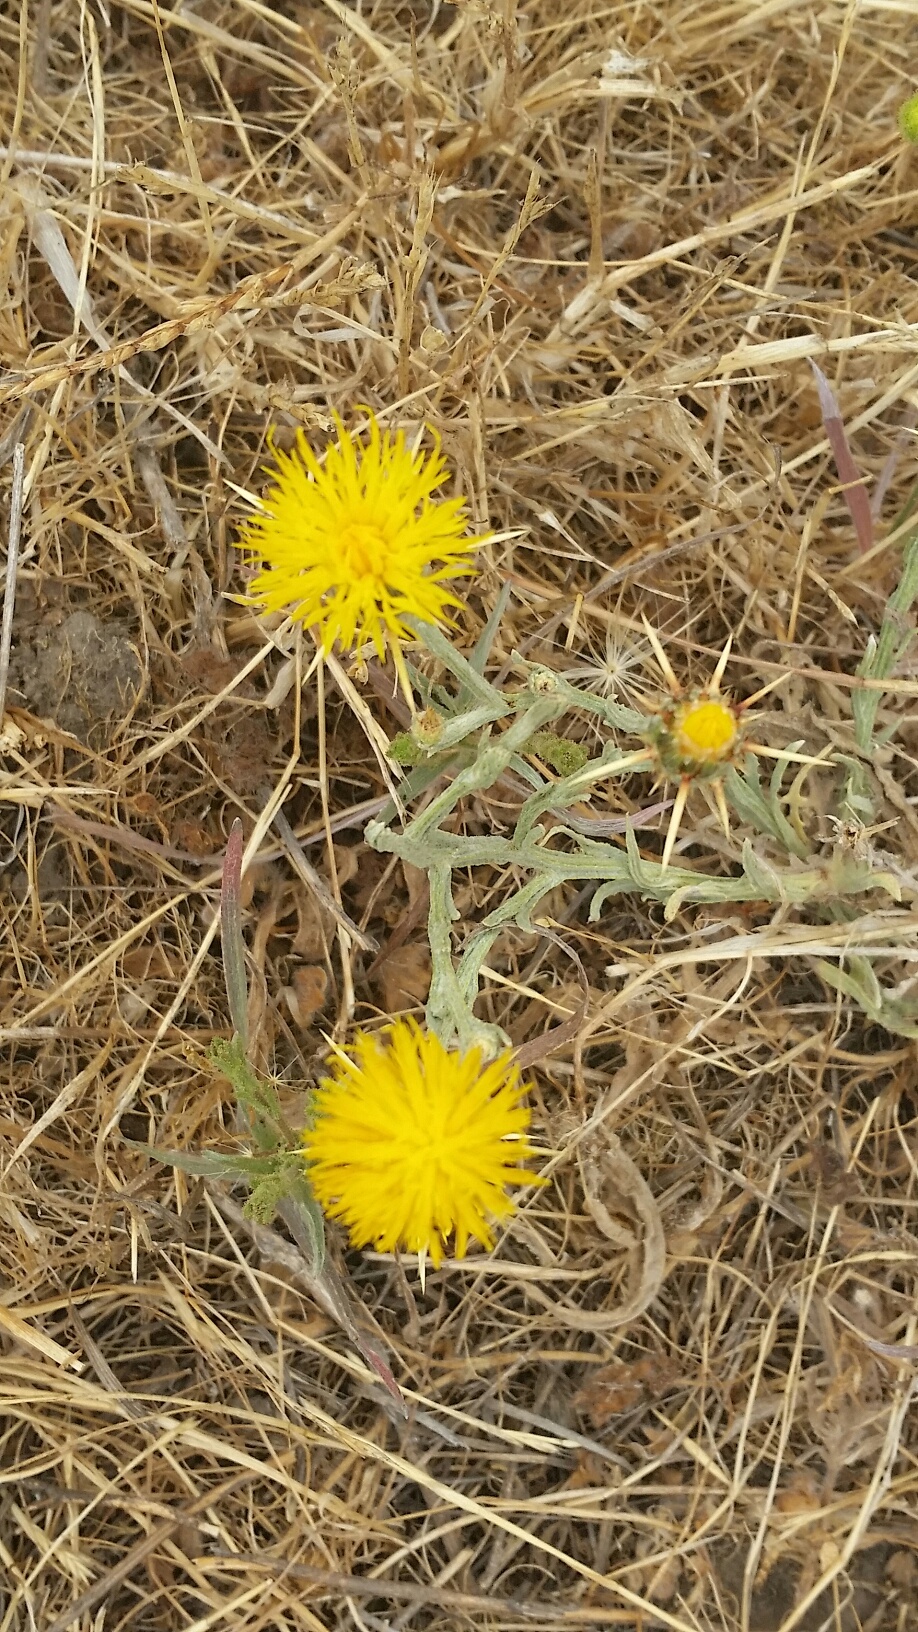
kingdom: Plantae
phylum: Tracheophyta
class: Magnoliopsida
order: Asterales
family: Asteraceae
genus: Centaurea
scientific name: Centaurea solstitialis
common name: Yellow star-thistle
